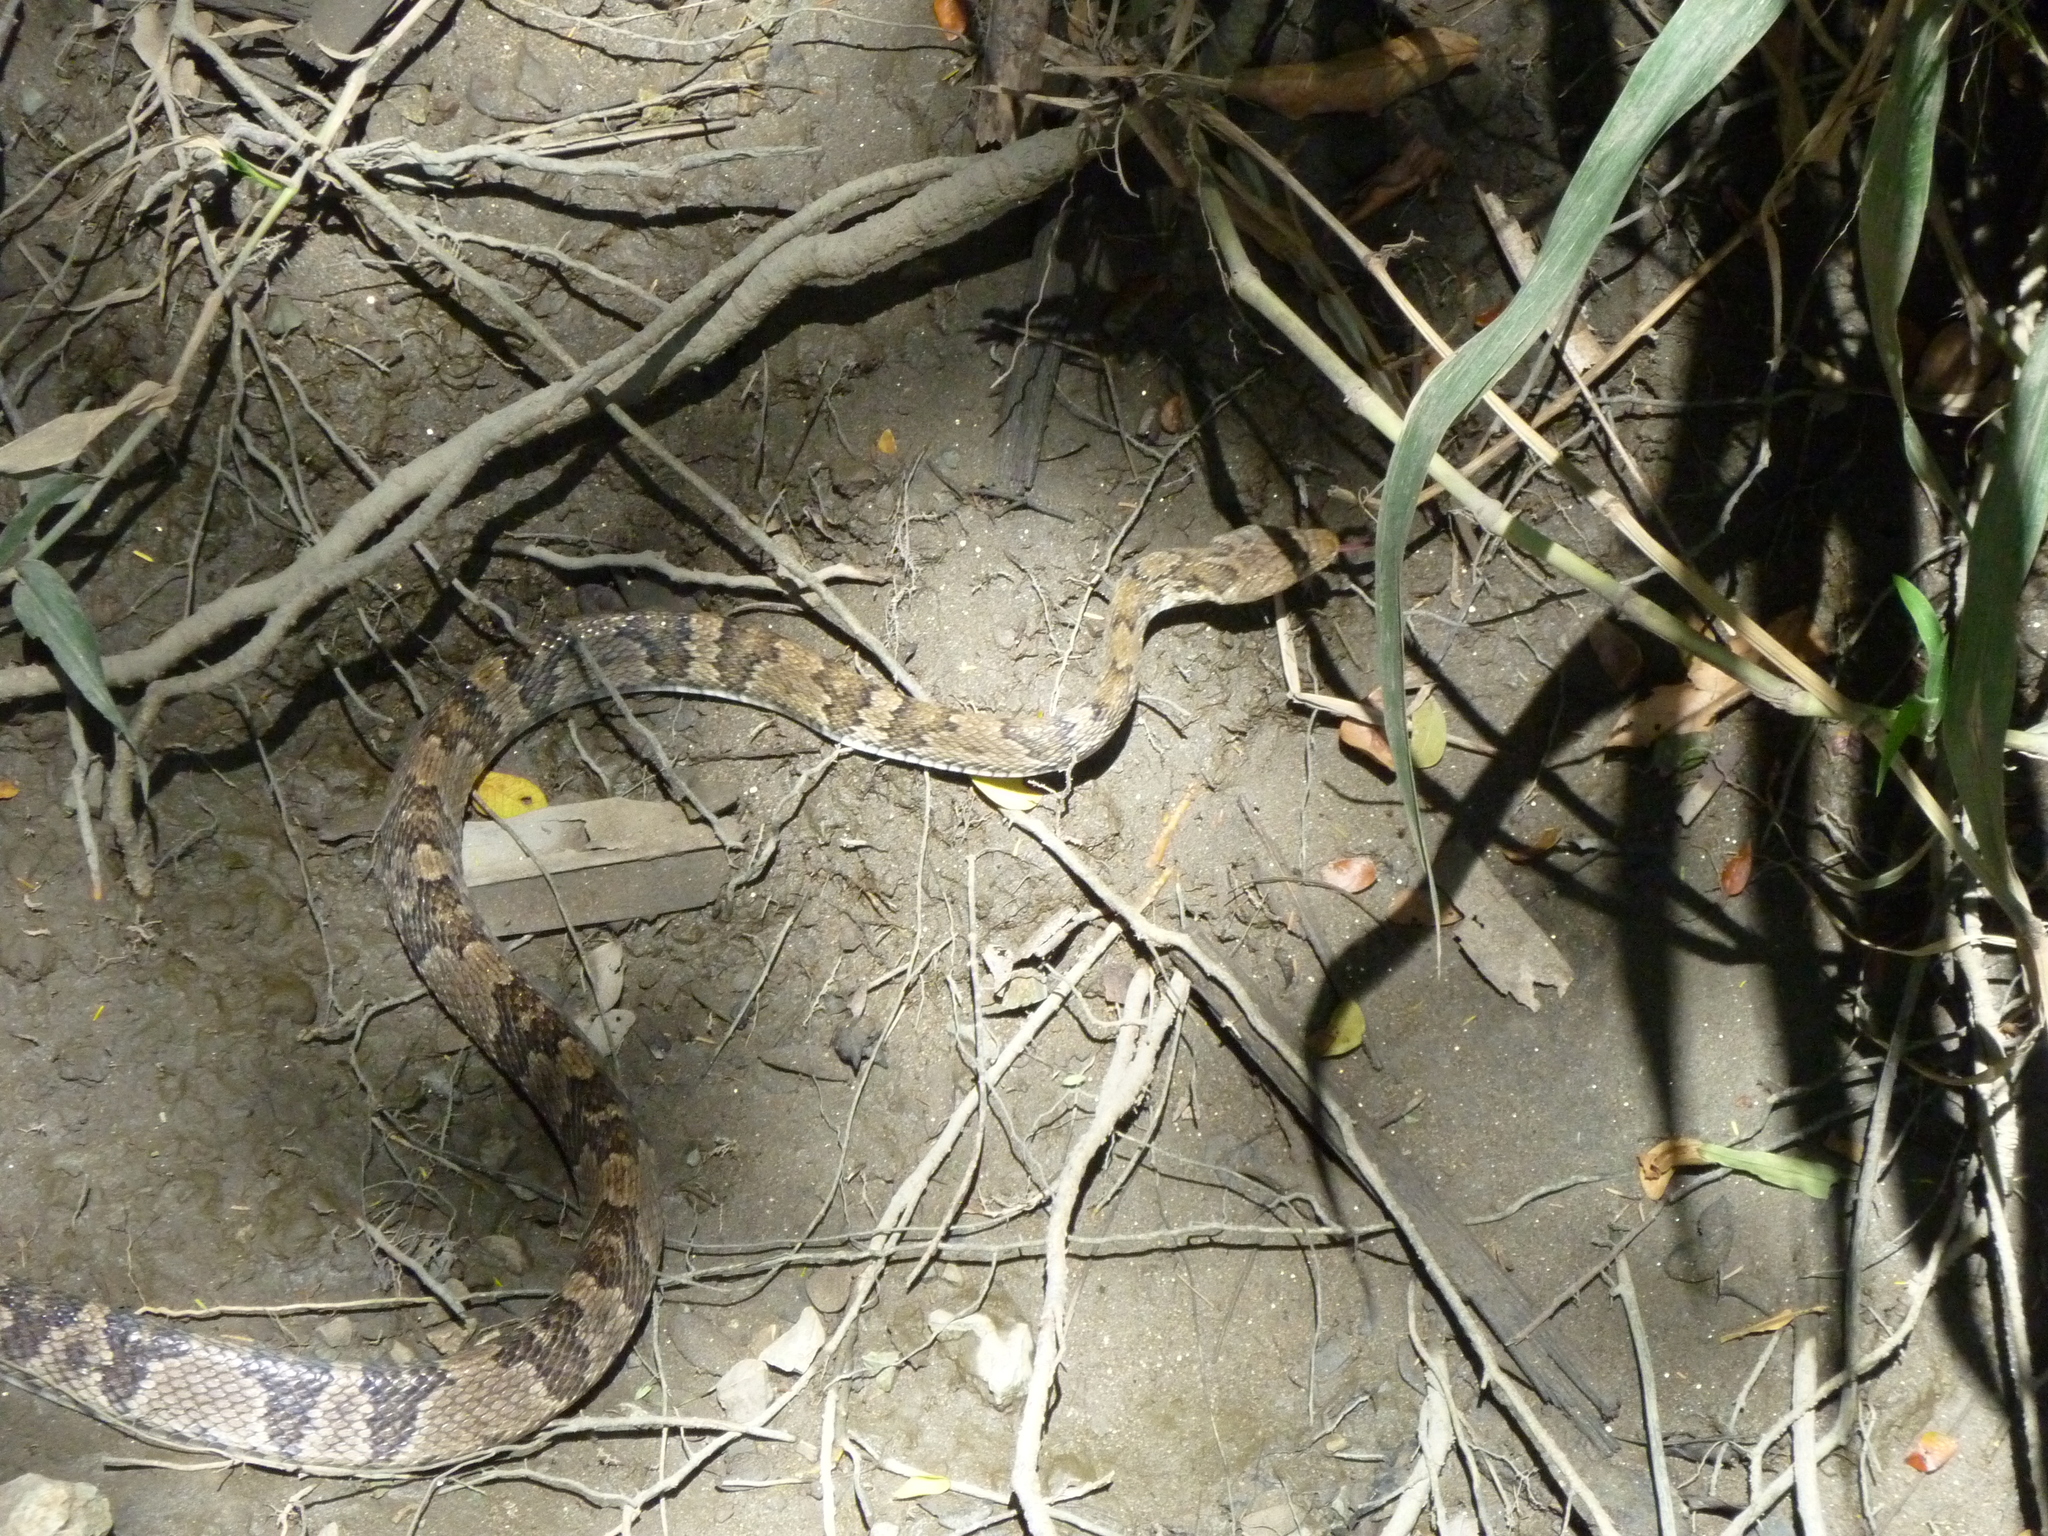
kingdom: Animalia
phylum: Chordata
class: Squamata
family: Colubridae
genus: Trimorphodon
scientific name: Trimorphodon quadruplex
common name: Central american lyre snake
